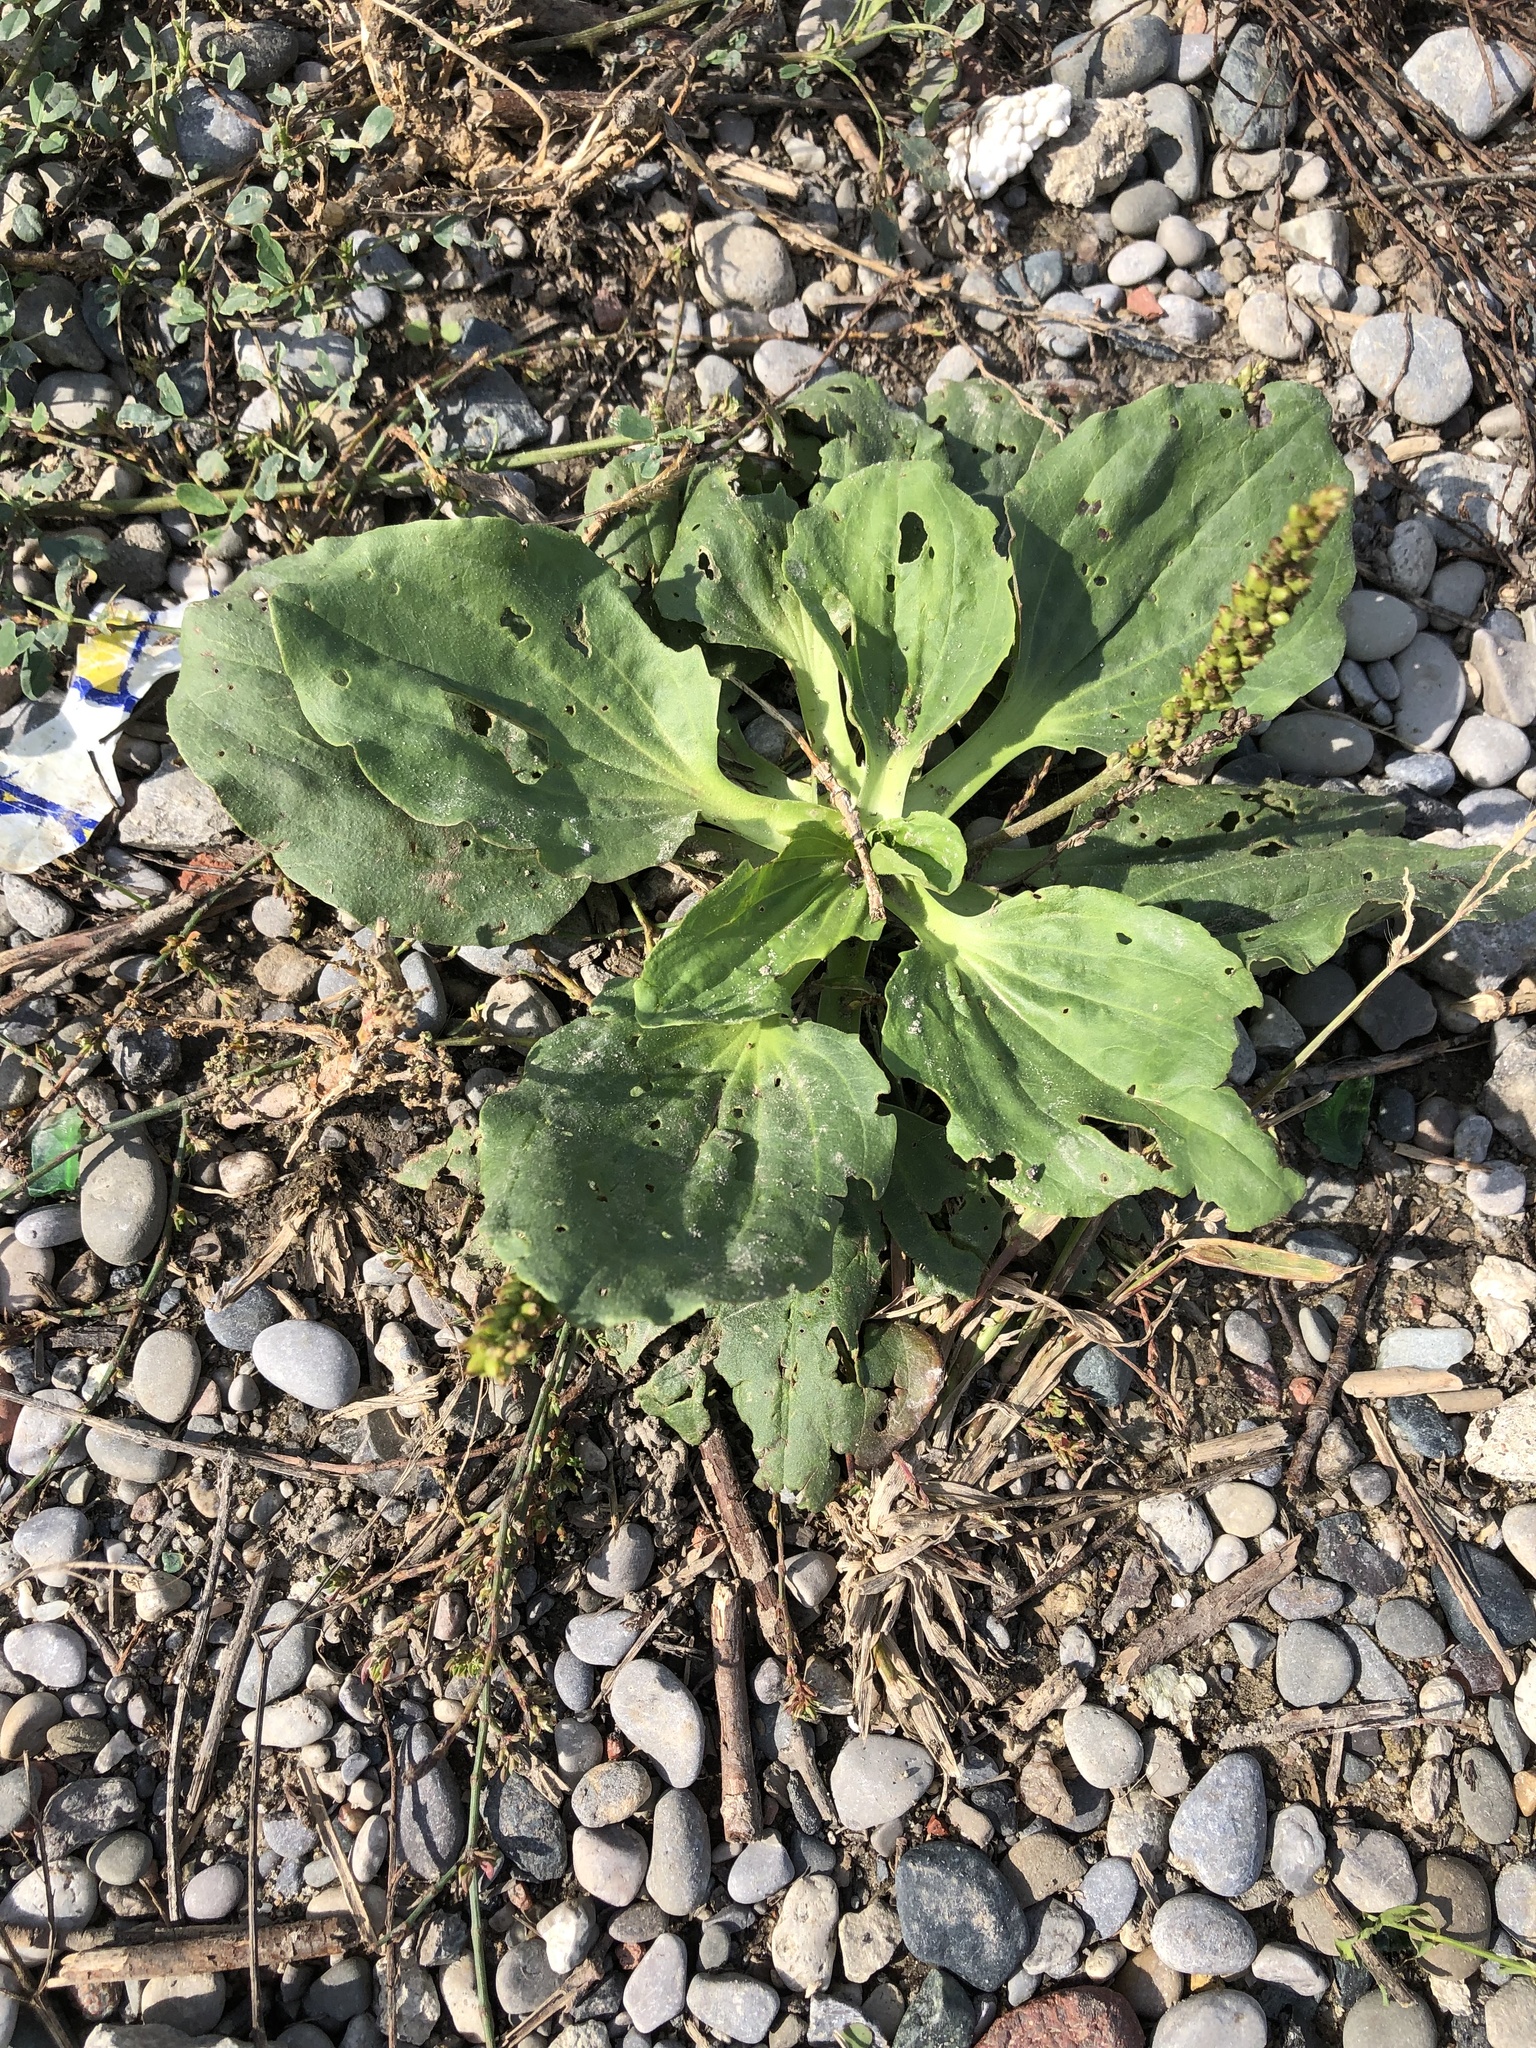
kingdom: Plantae
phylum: Tracheophyta
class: Magnoliopsida
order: Lamiales
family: Plantaginaceae
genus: Plantago
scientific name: Plantago major
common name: Common plantain
